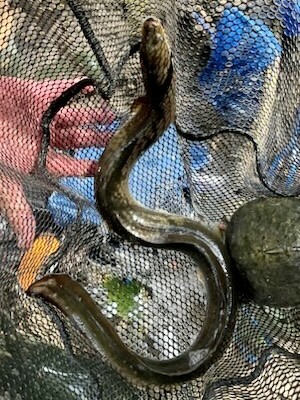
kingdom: Animalia
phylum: Chordata
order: Anguilliformes
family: Anguillidae
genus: Anguilla
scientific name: Anguilla rostrata
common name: American eel
